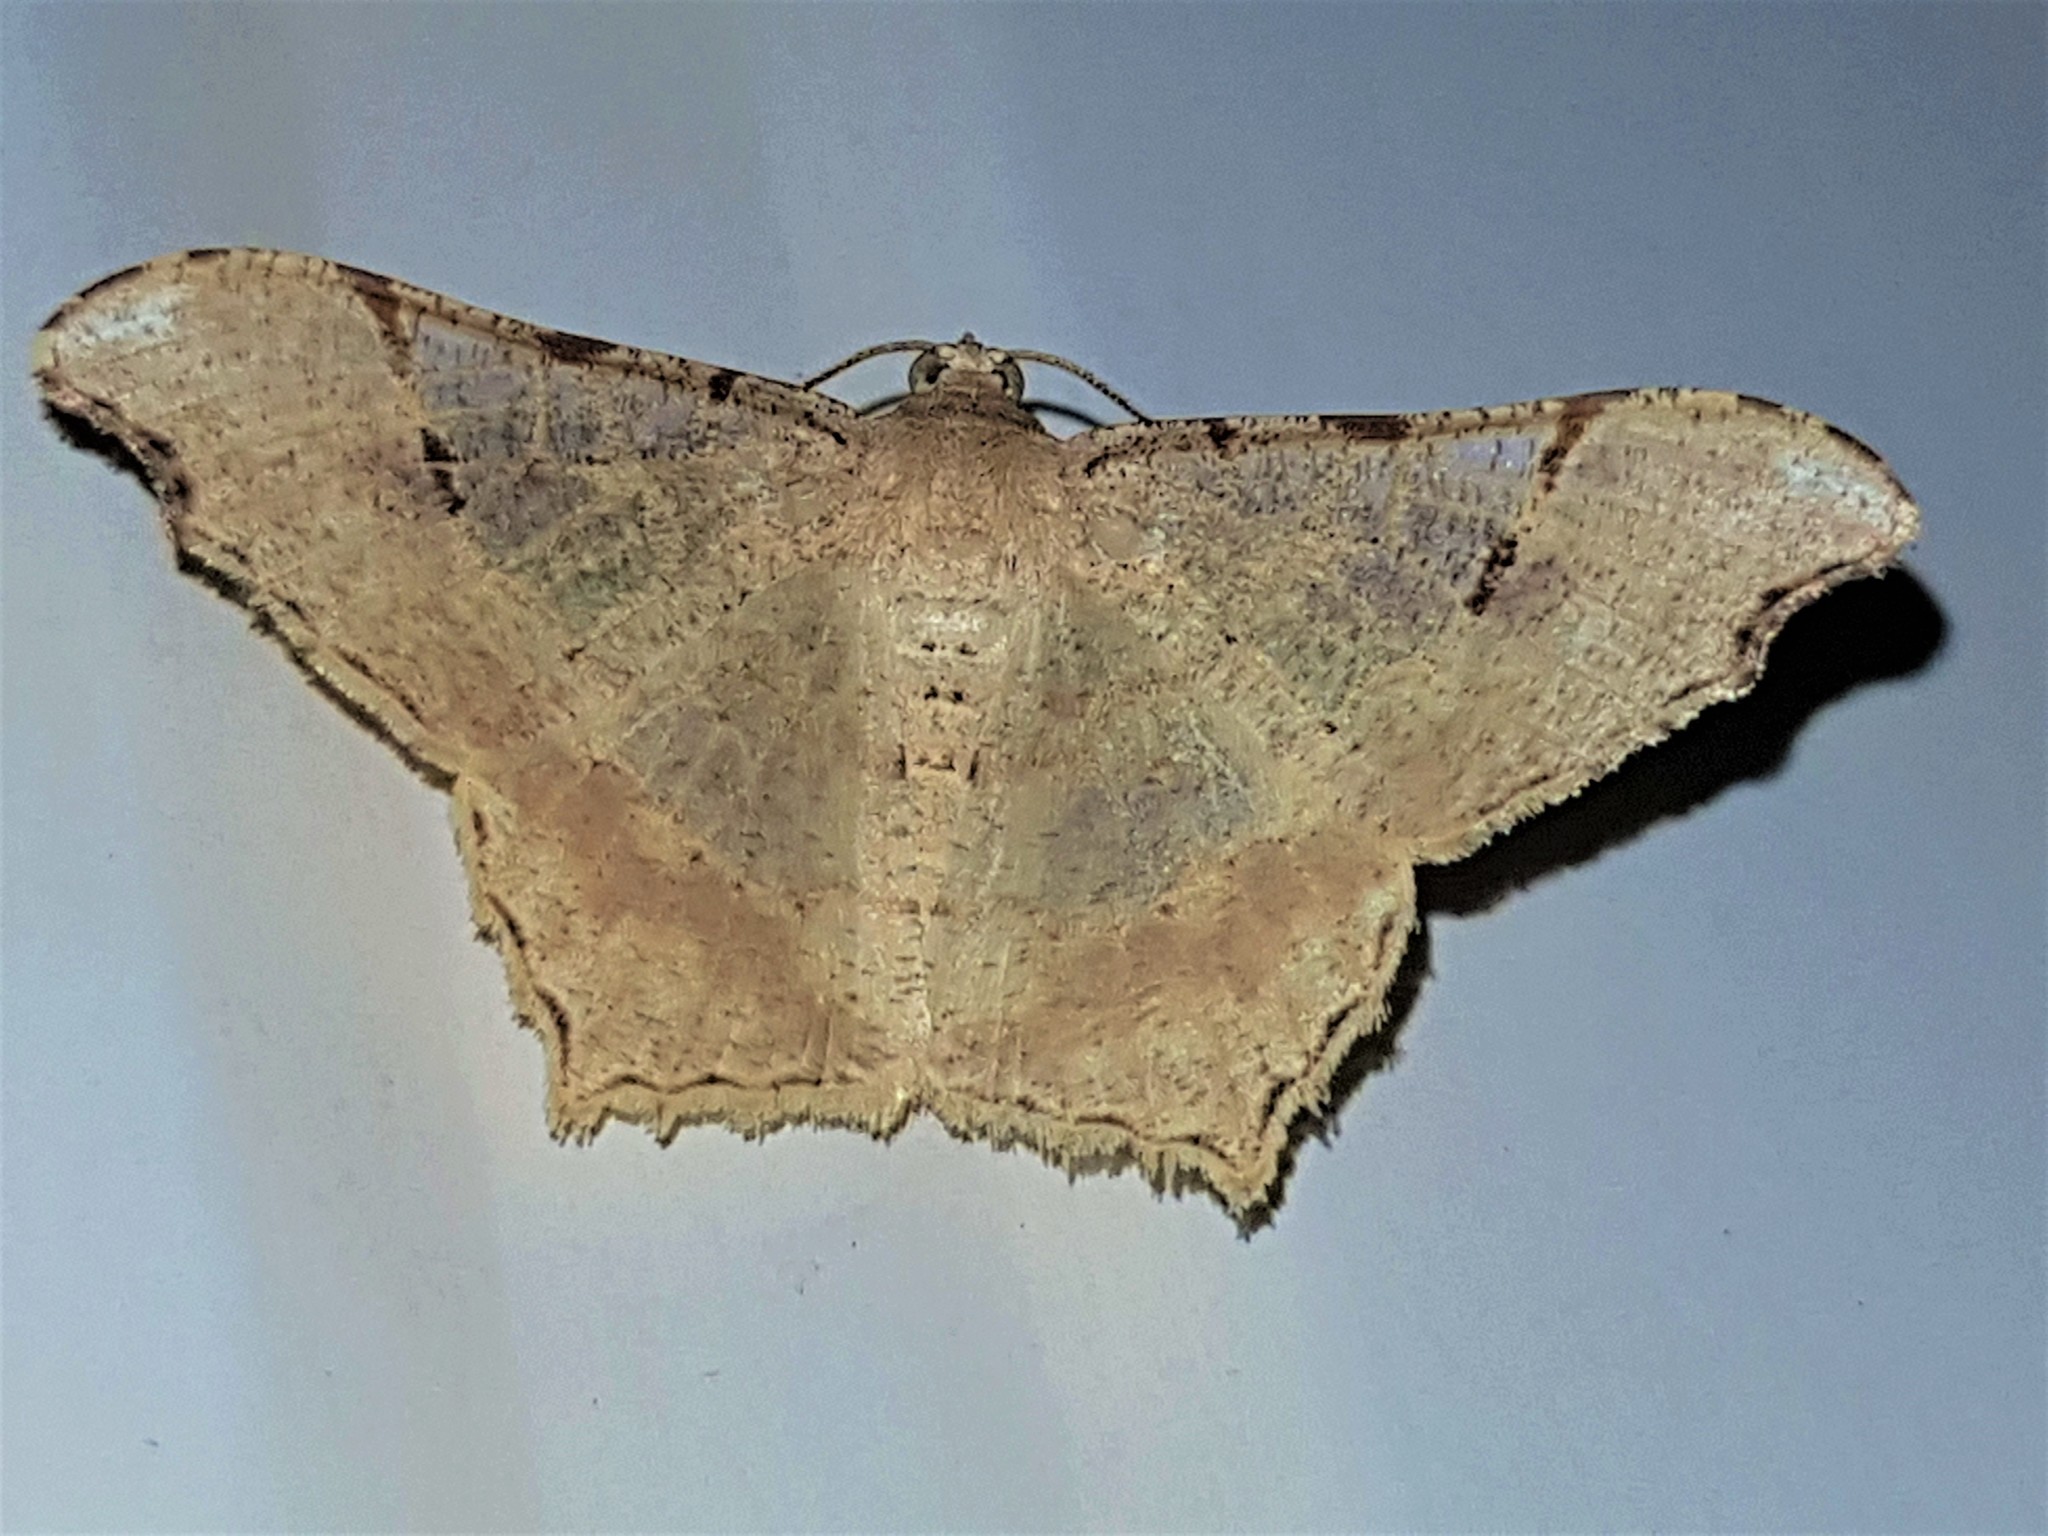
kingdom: Animalia
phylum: Arthropoda
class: Insecta
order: Lepidoptera
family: Geometridae
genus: Macaria
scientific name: Macaria achetata
